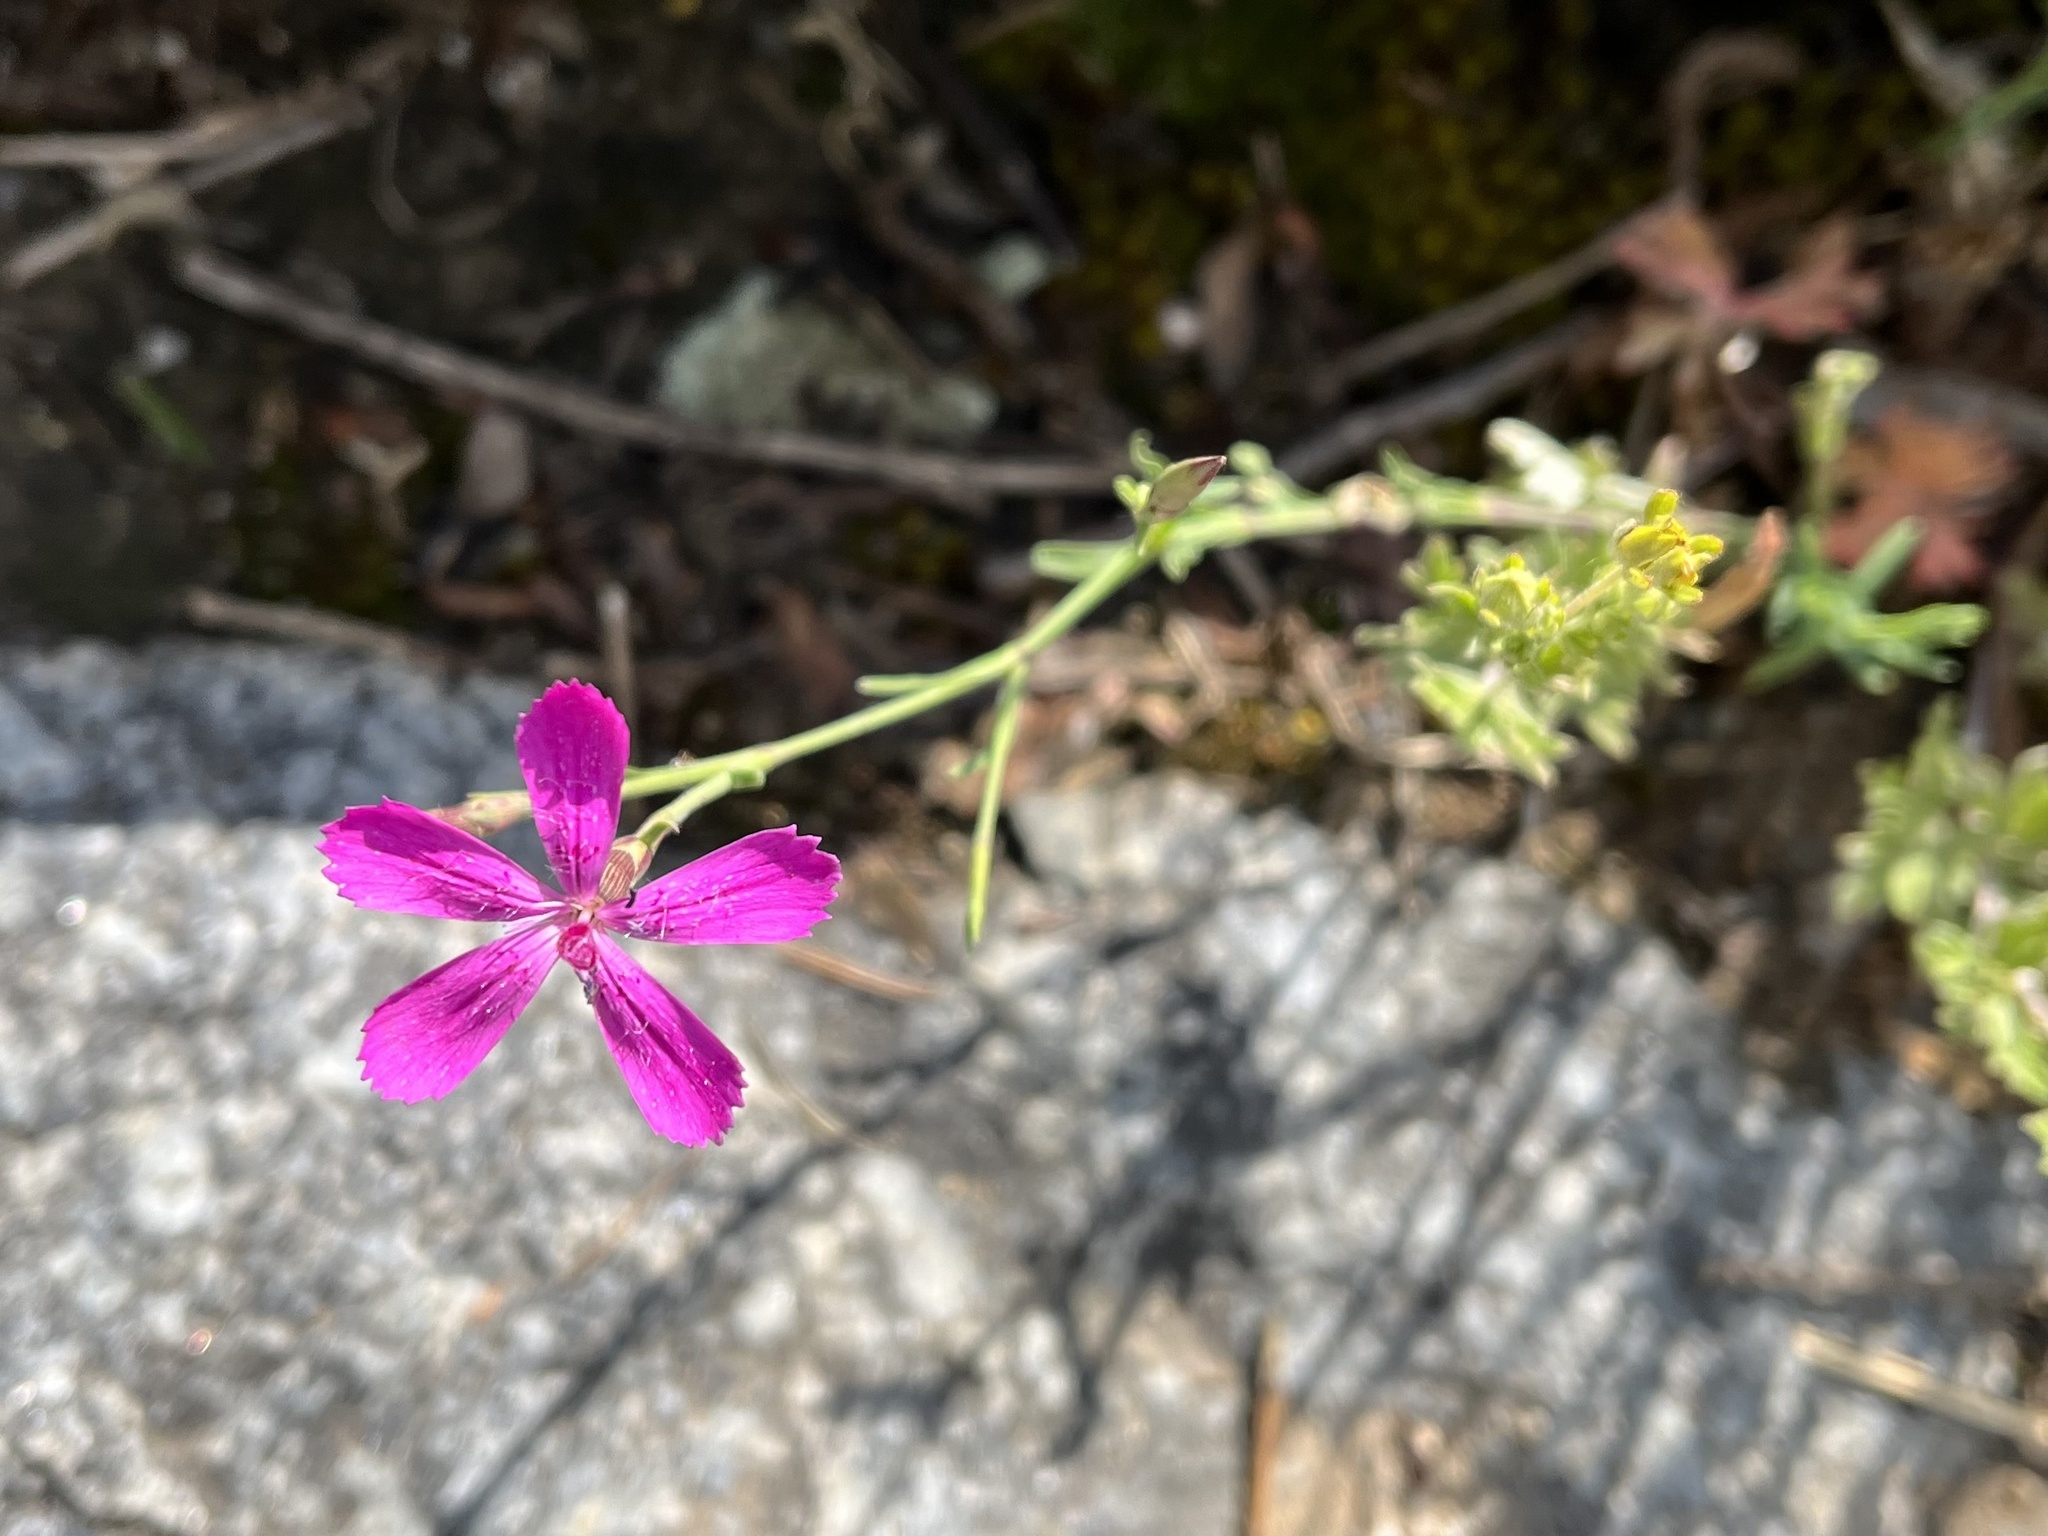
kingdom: Plantae
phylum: Tracheophyta
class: Magnoliopsida
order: Caryophyllales
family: Caryophyllaceae
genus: Dianthus
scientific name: Dianthus deltoides
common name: Maiden pink
